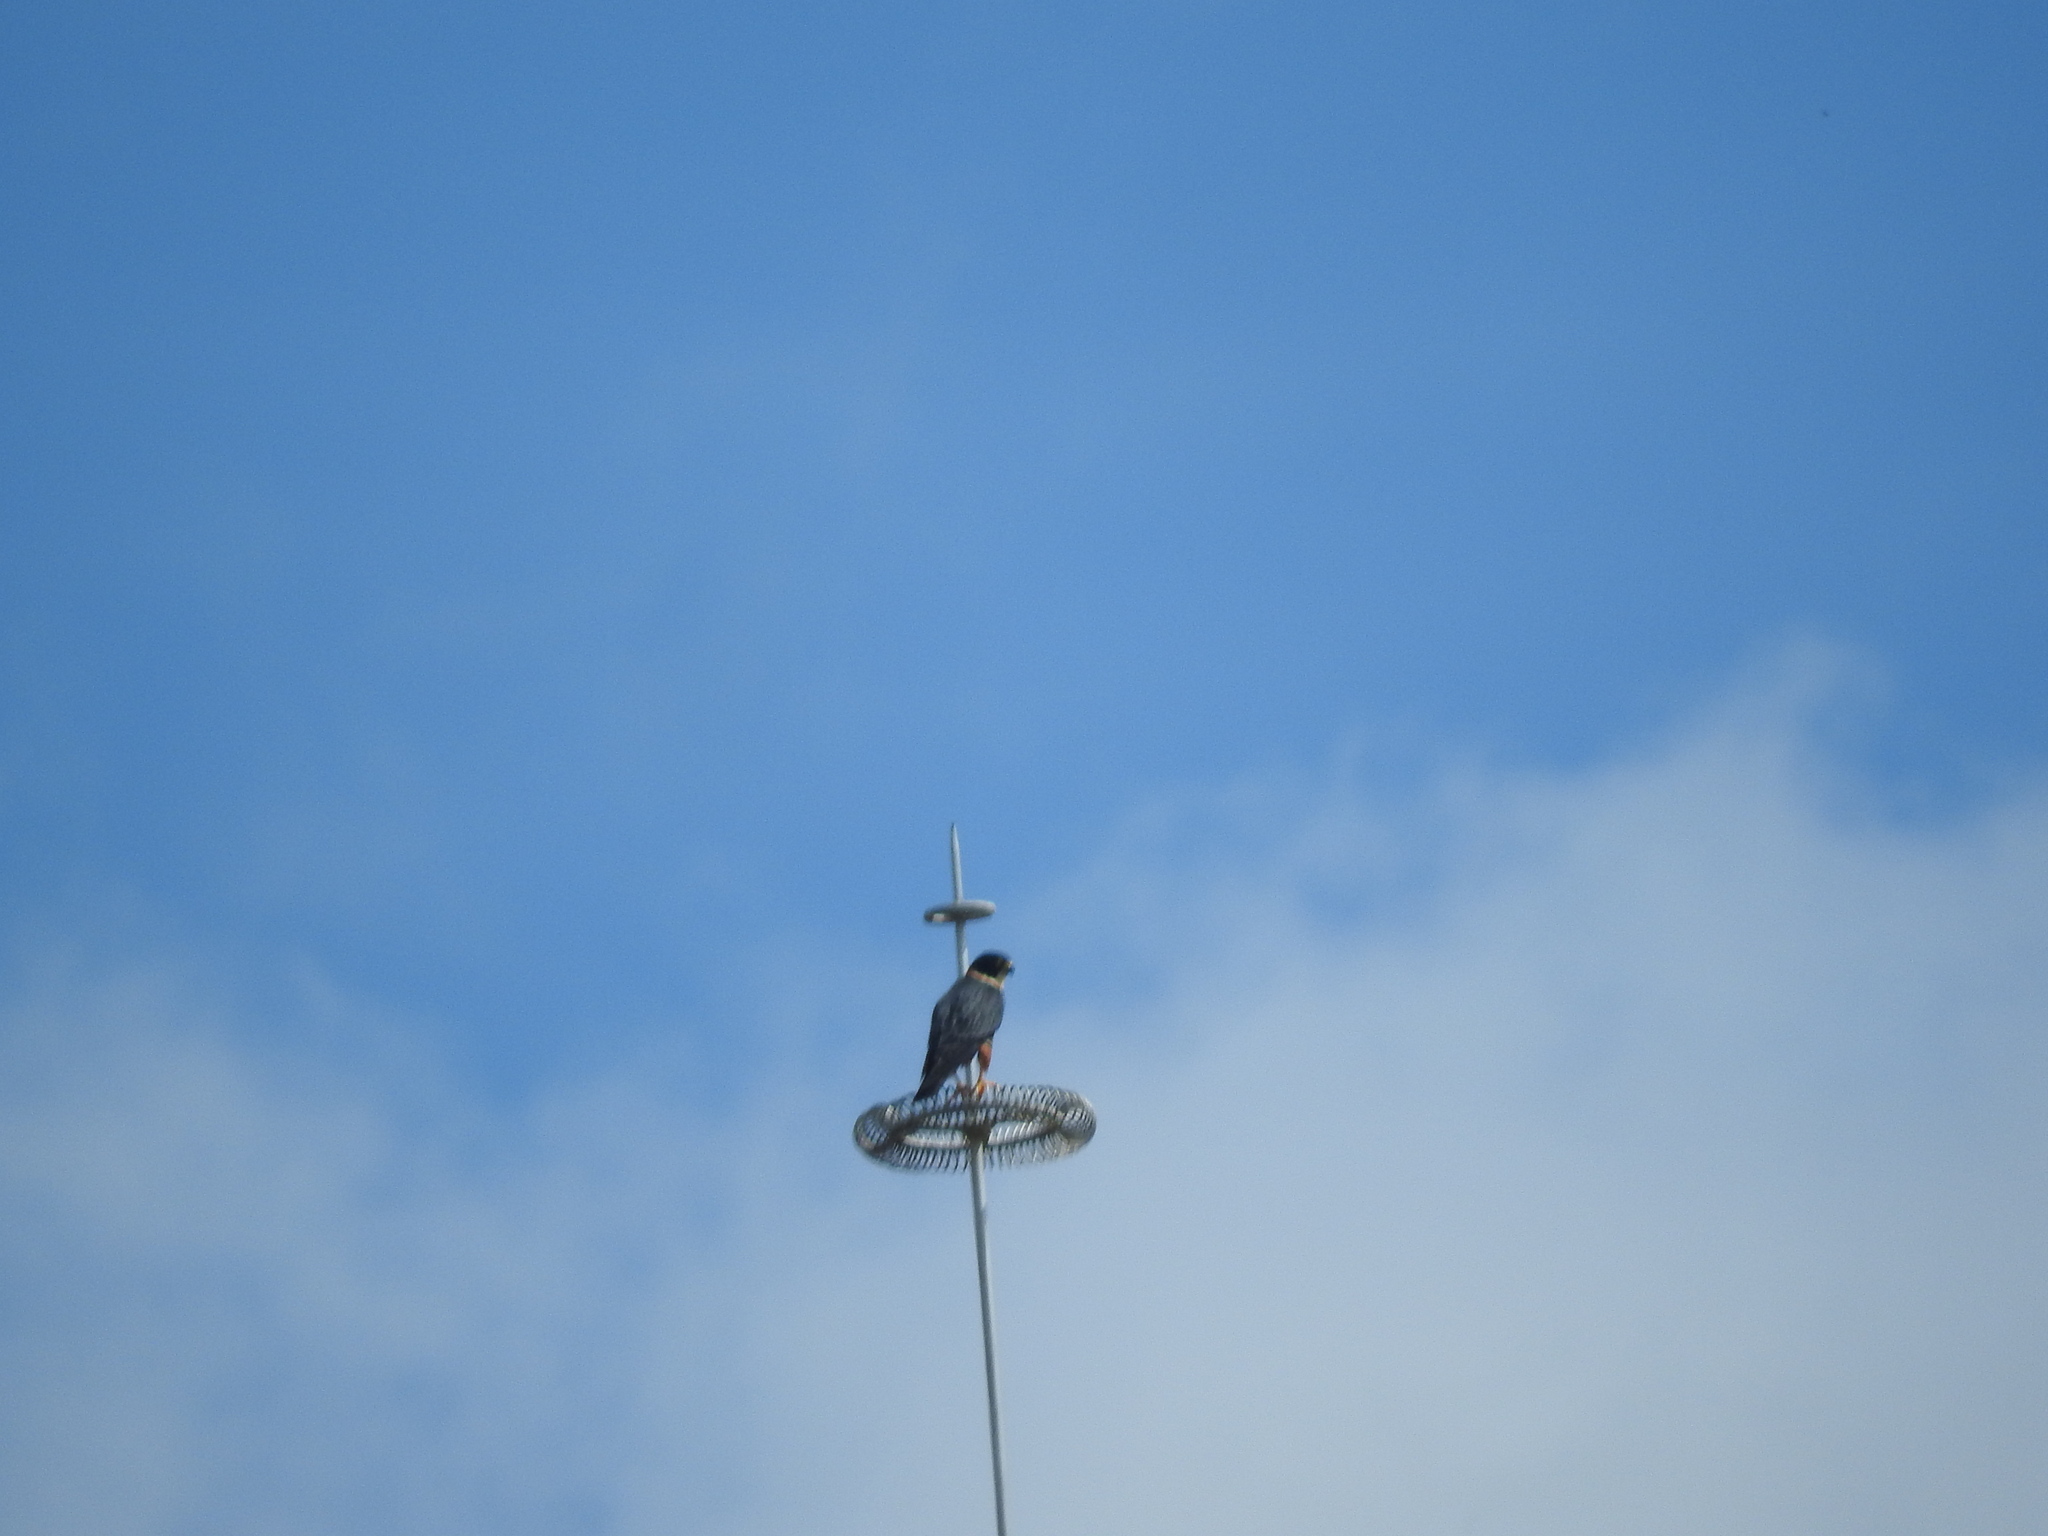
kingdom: Animalia
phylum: Chordata
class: Aves
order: Falconiformes
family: Falconidae
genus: Falco
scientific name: Falco rufigularis
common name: Bat falcon
